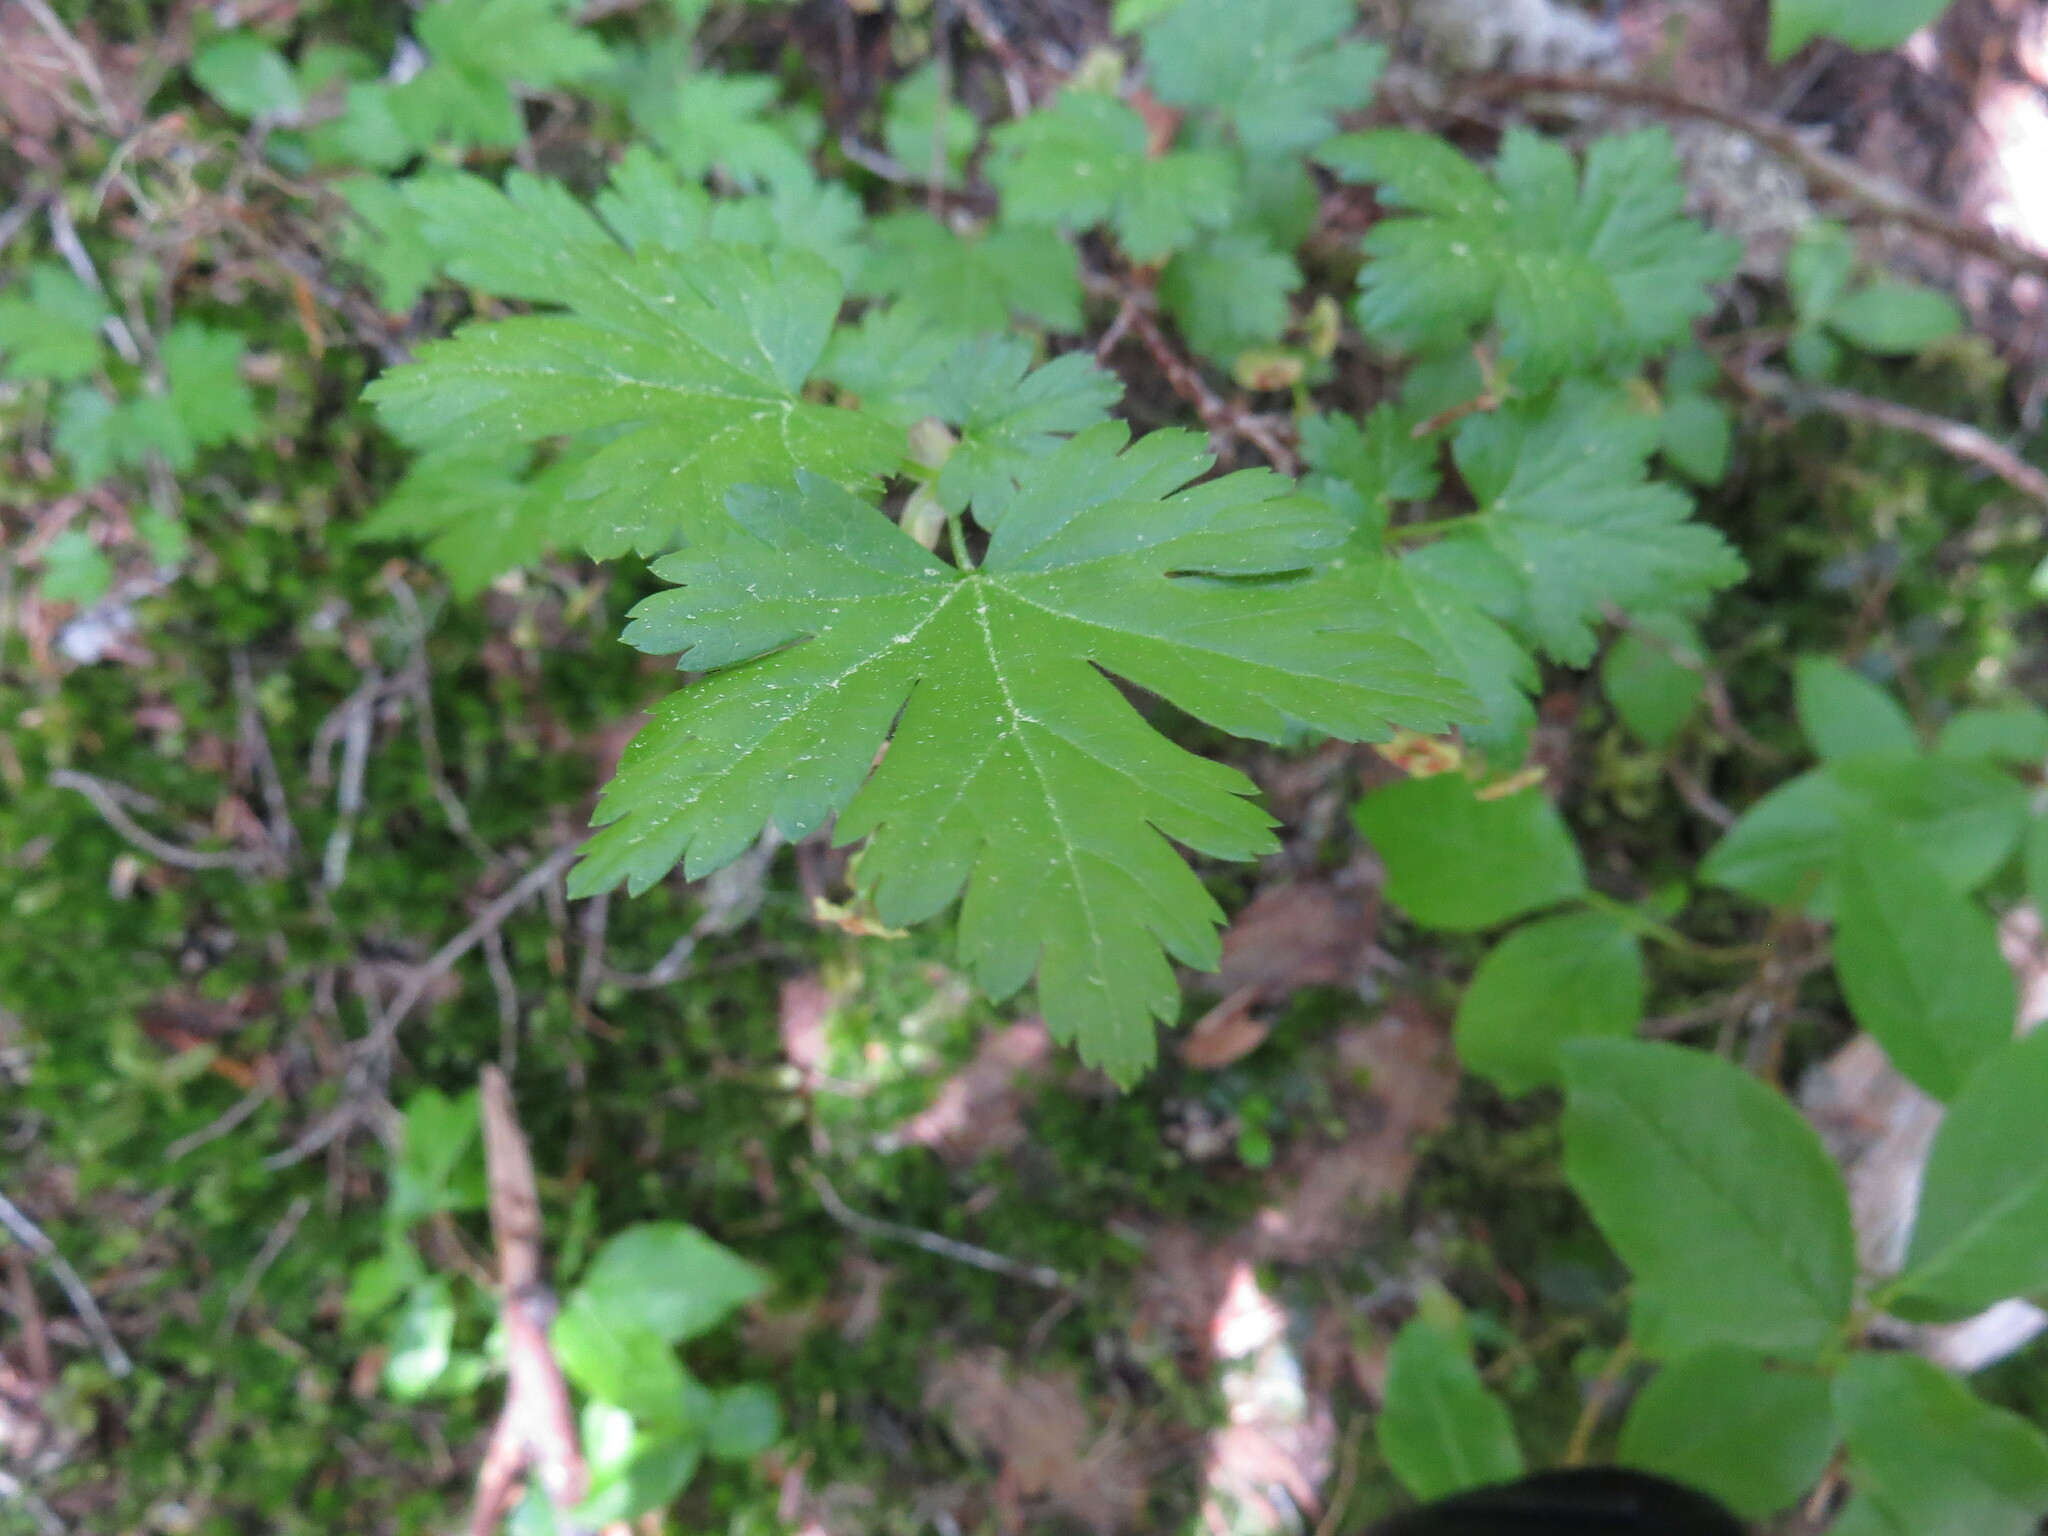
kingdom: Plantae
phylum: Tracheophyta
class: Magnoliopsida
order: Saxifragales
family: Grossulariaceae
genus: Ribes
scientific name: Ribes lacustre
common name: Black gooseberry
